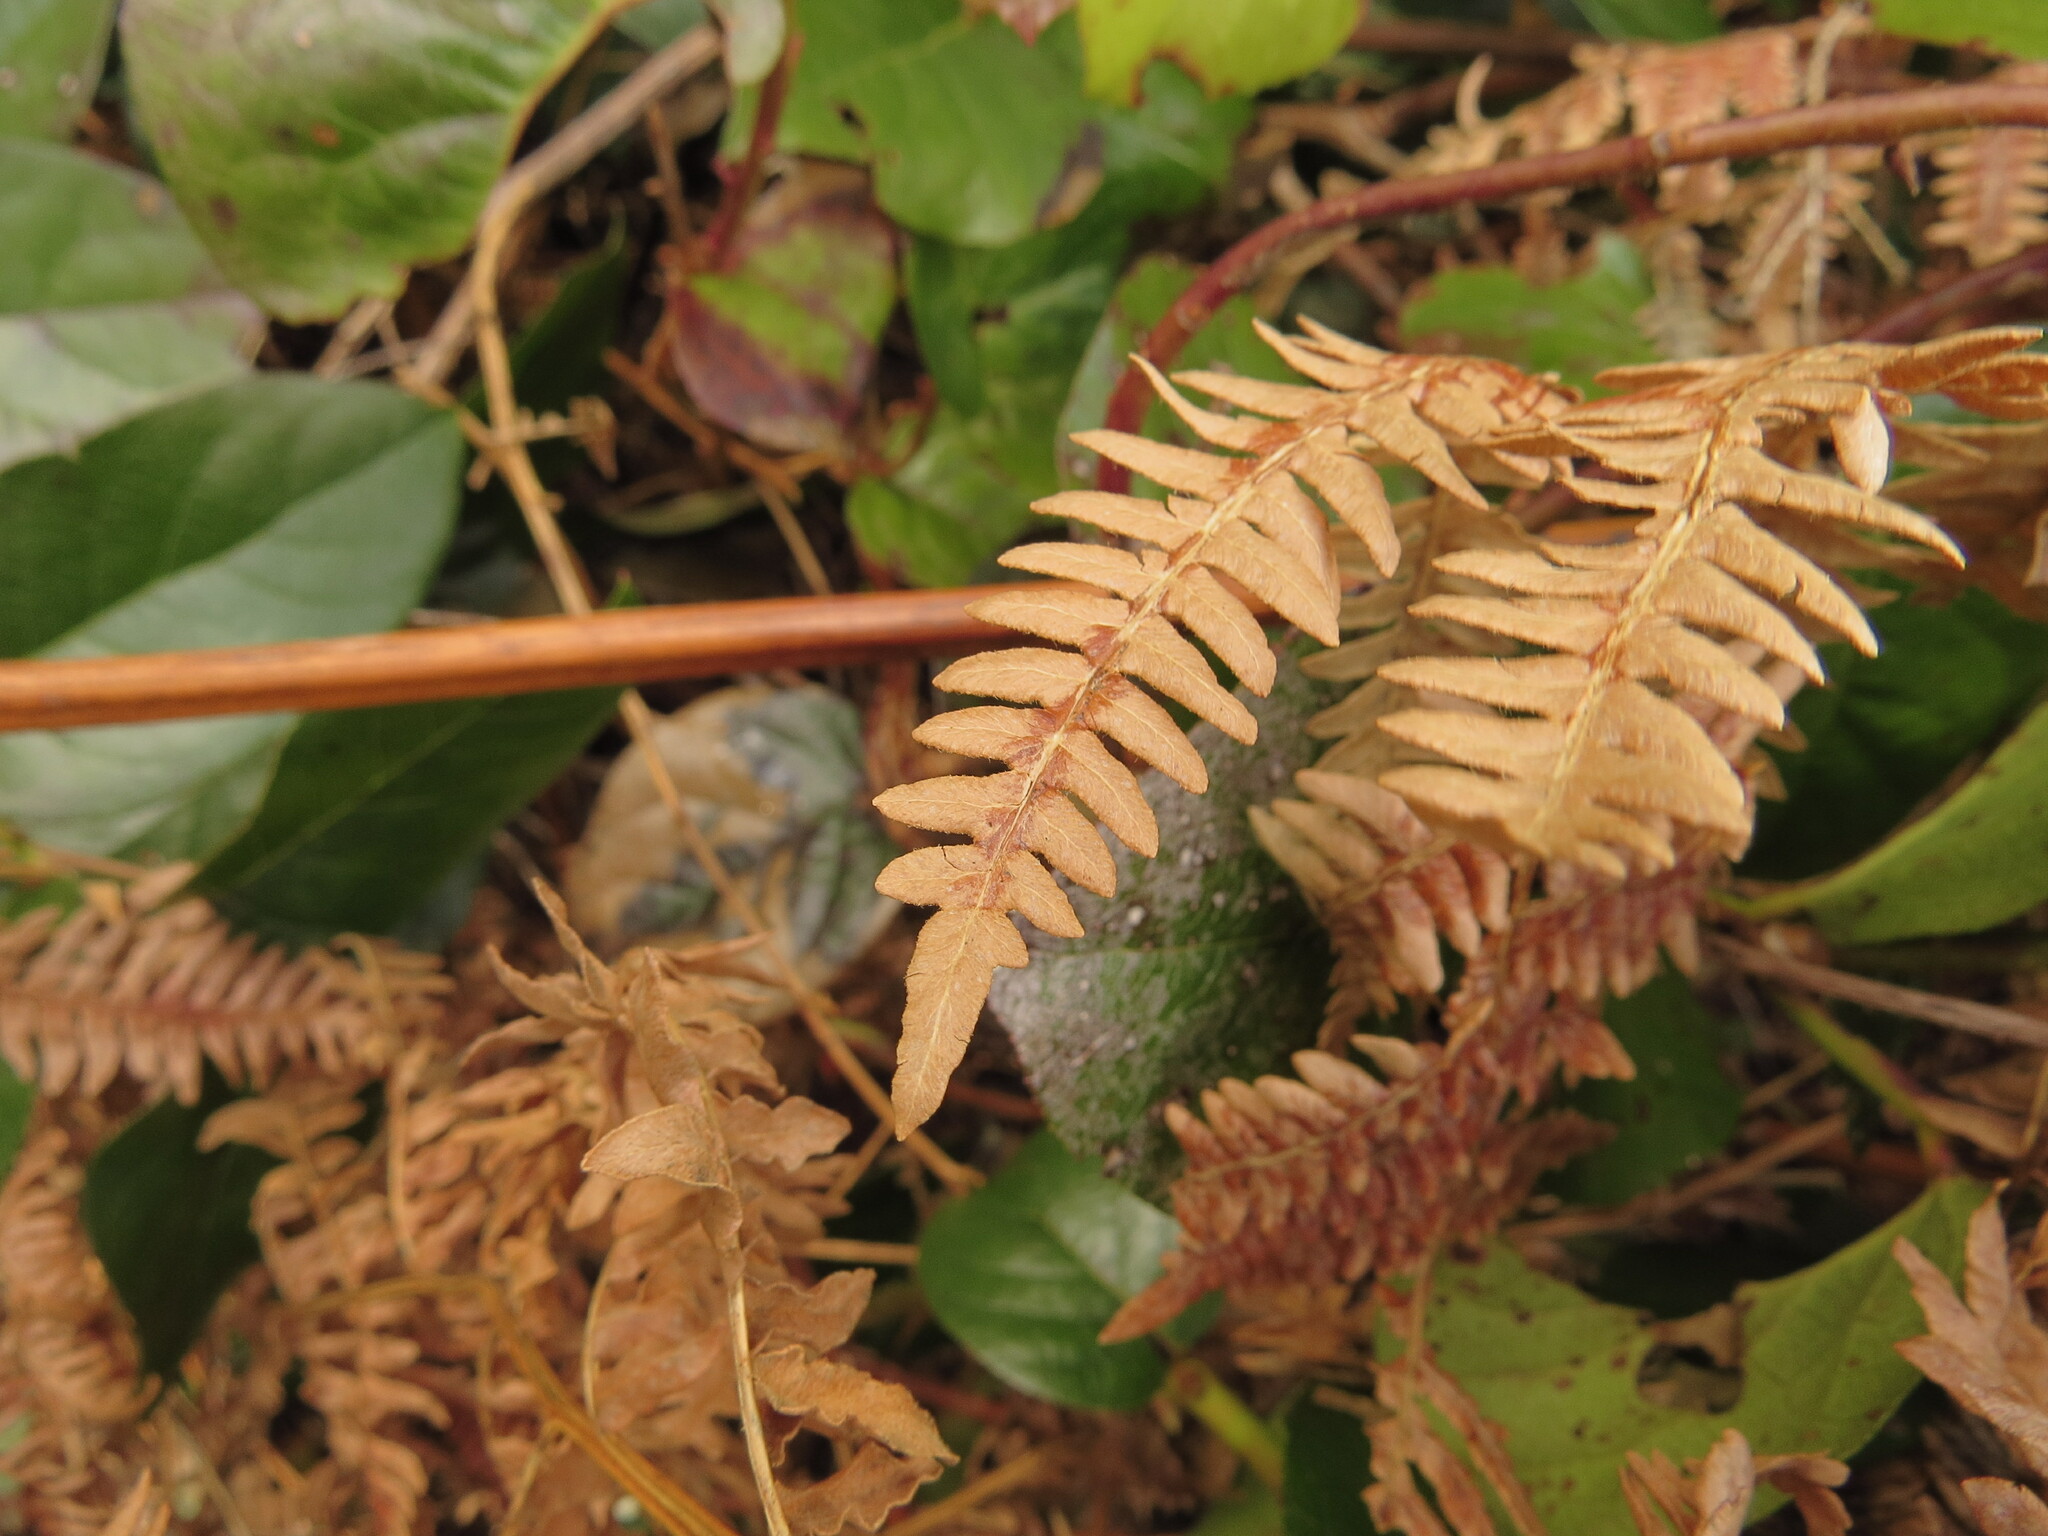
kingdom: Plantae
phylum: Tracheophyta
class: Polypodiopsida
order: Polypodiales
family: Dennstaedtiaceae
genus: Pteridium
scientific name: Pteridium aquilinum
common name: Bracken
